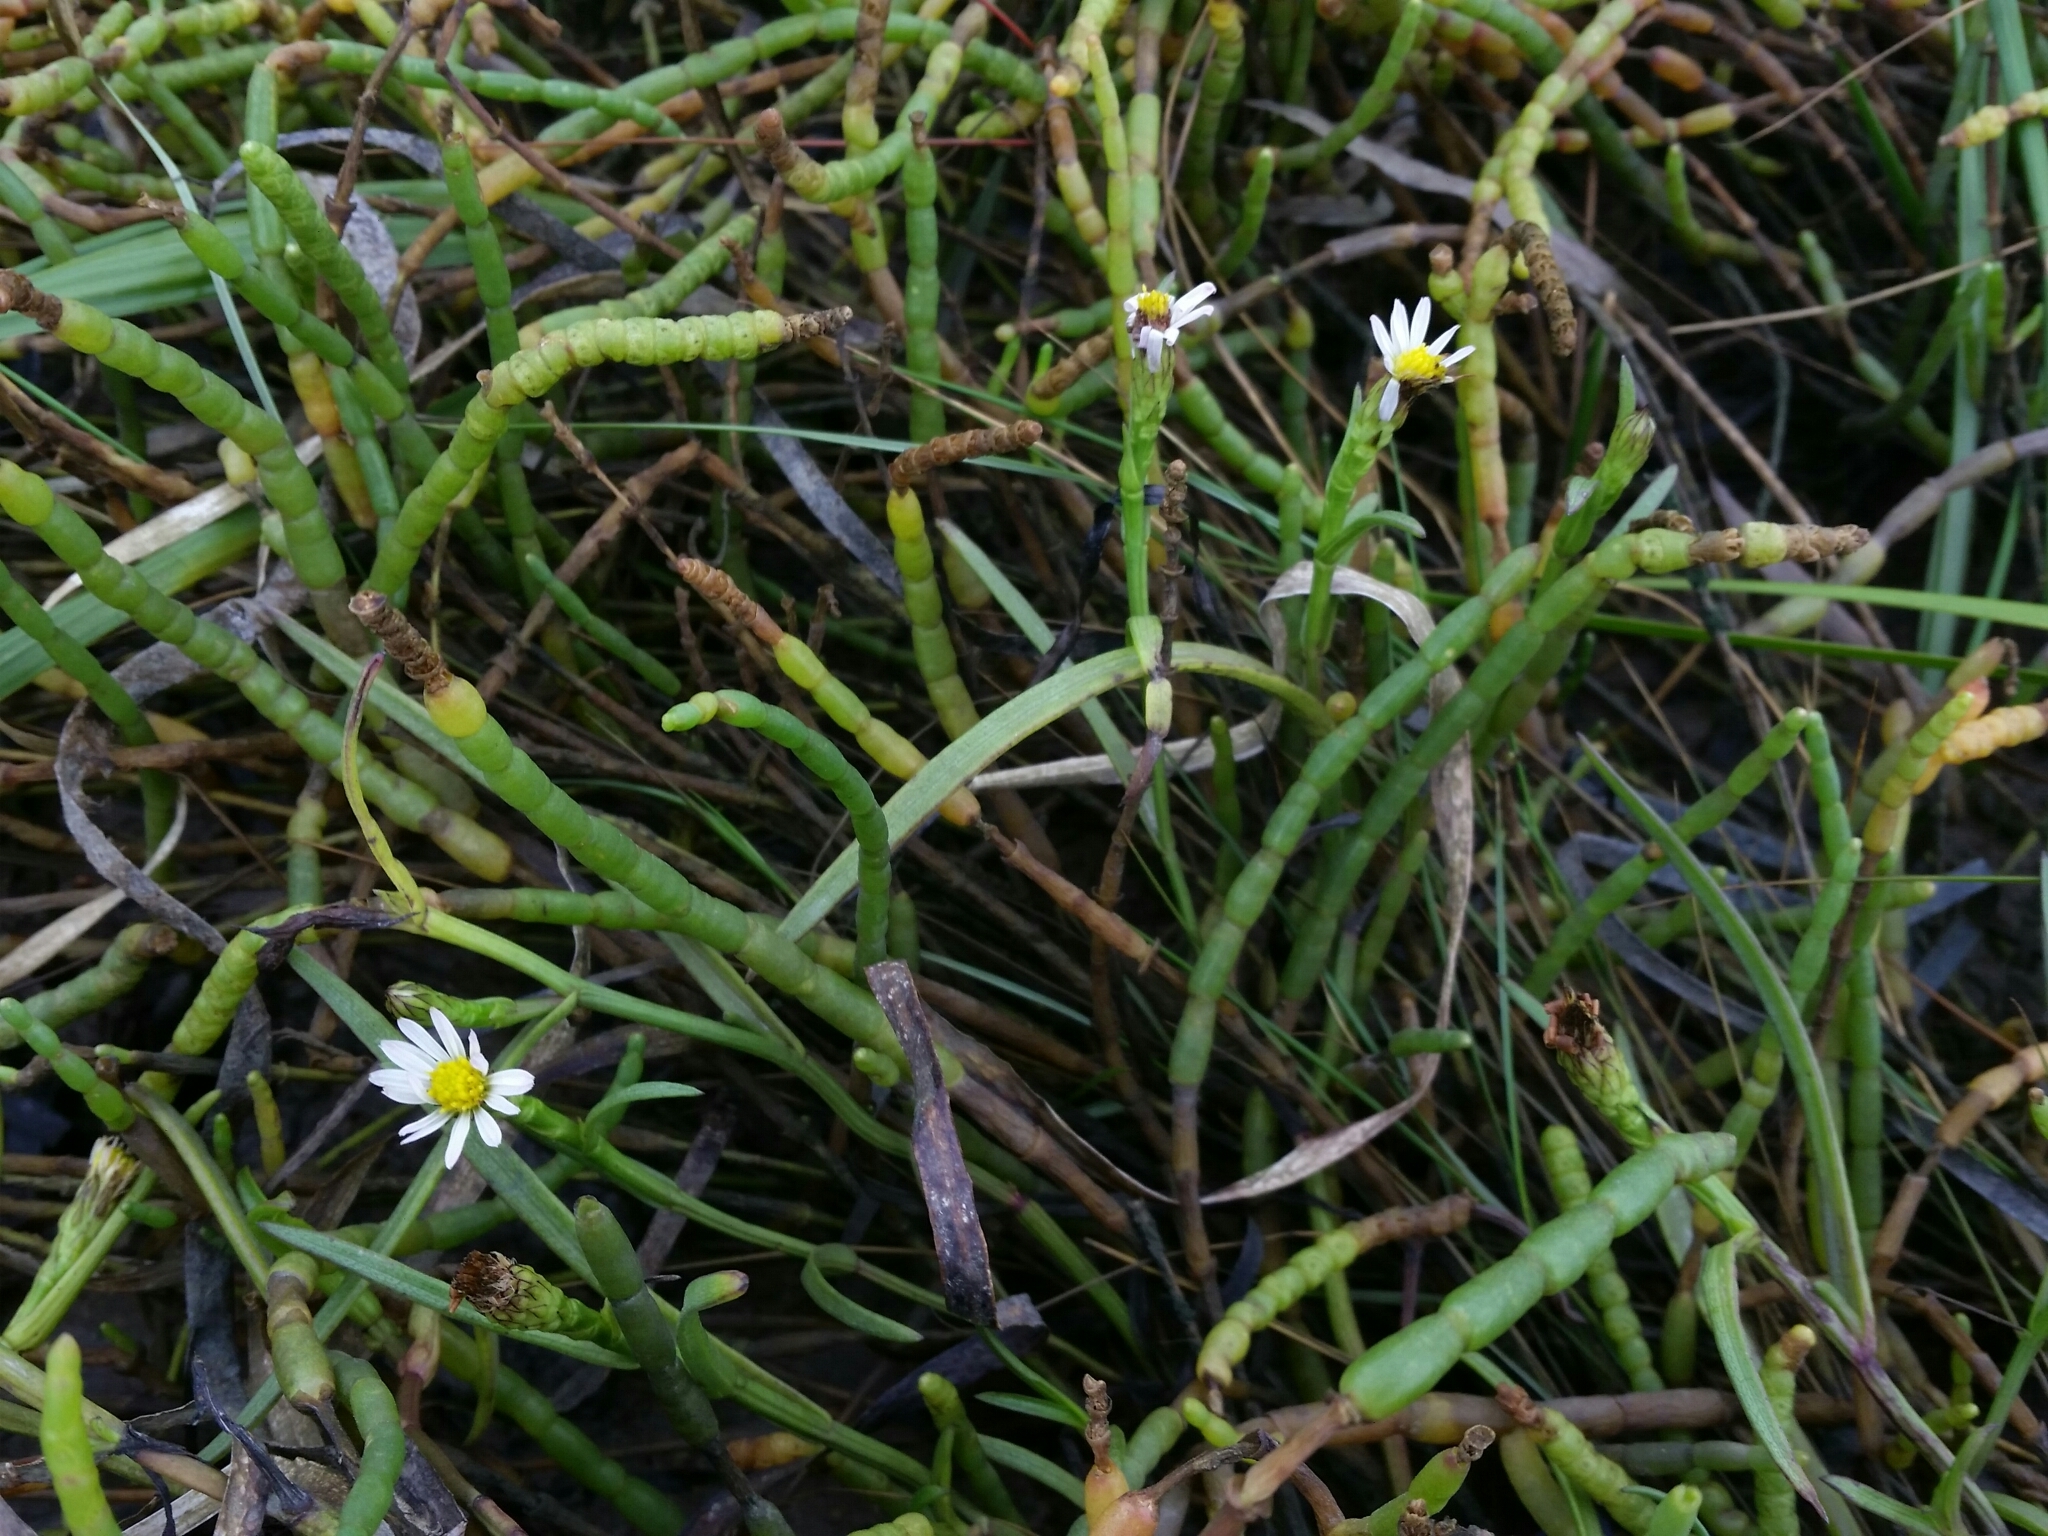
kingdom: Plantae
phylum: Tracheophyta
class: Magnoliopsida
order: Asterales
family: Asteraceae
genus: Symphyotrichum
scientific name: Symphyotrichum subulatum
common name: Annual saltmarsh aster
